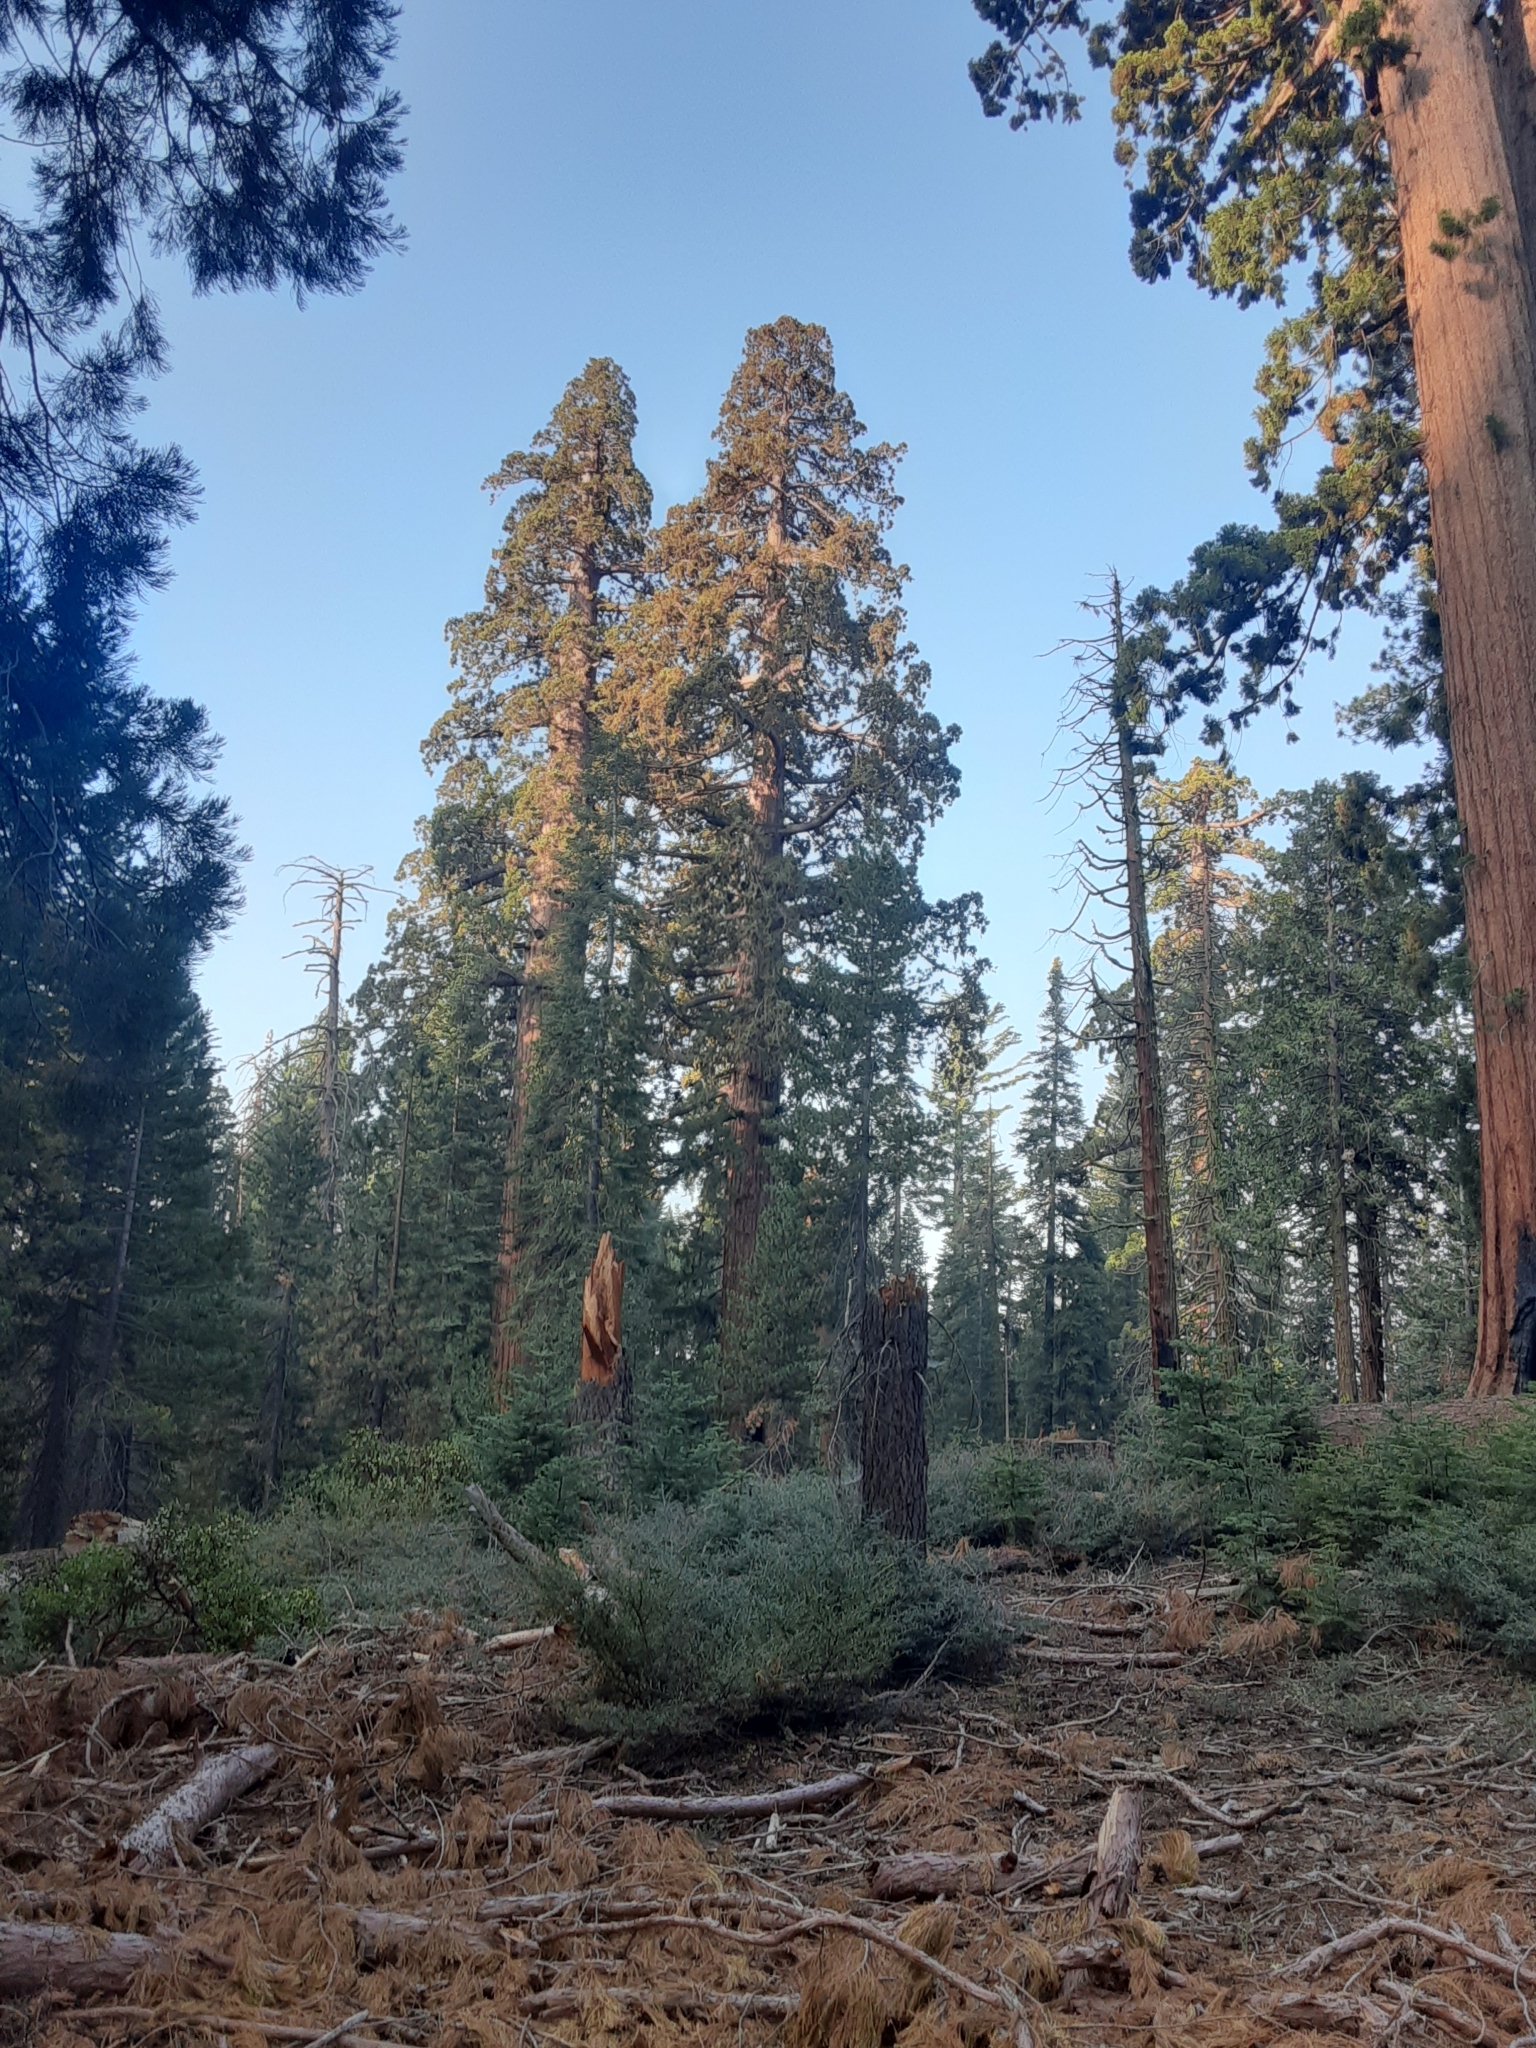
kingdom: Plantae
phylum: Tracheophyta
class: Pinopsida
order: Pinales
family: Cupressaceae
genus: Sequoiadendron
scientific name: Sequoiadendron giganteum
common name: Wellingtonia
